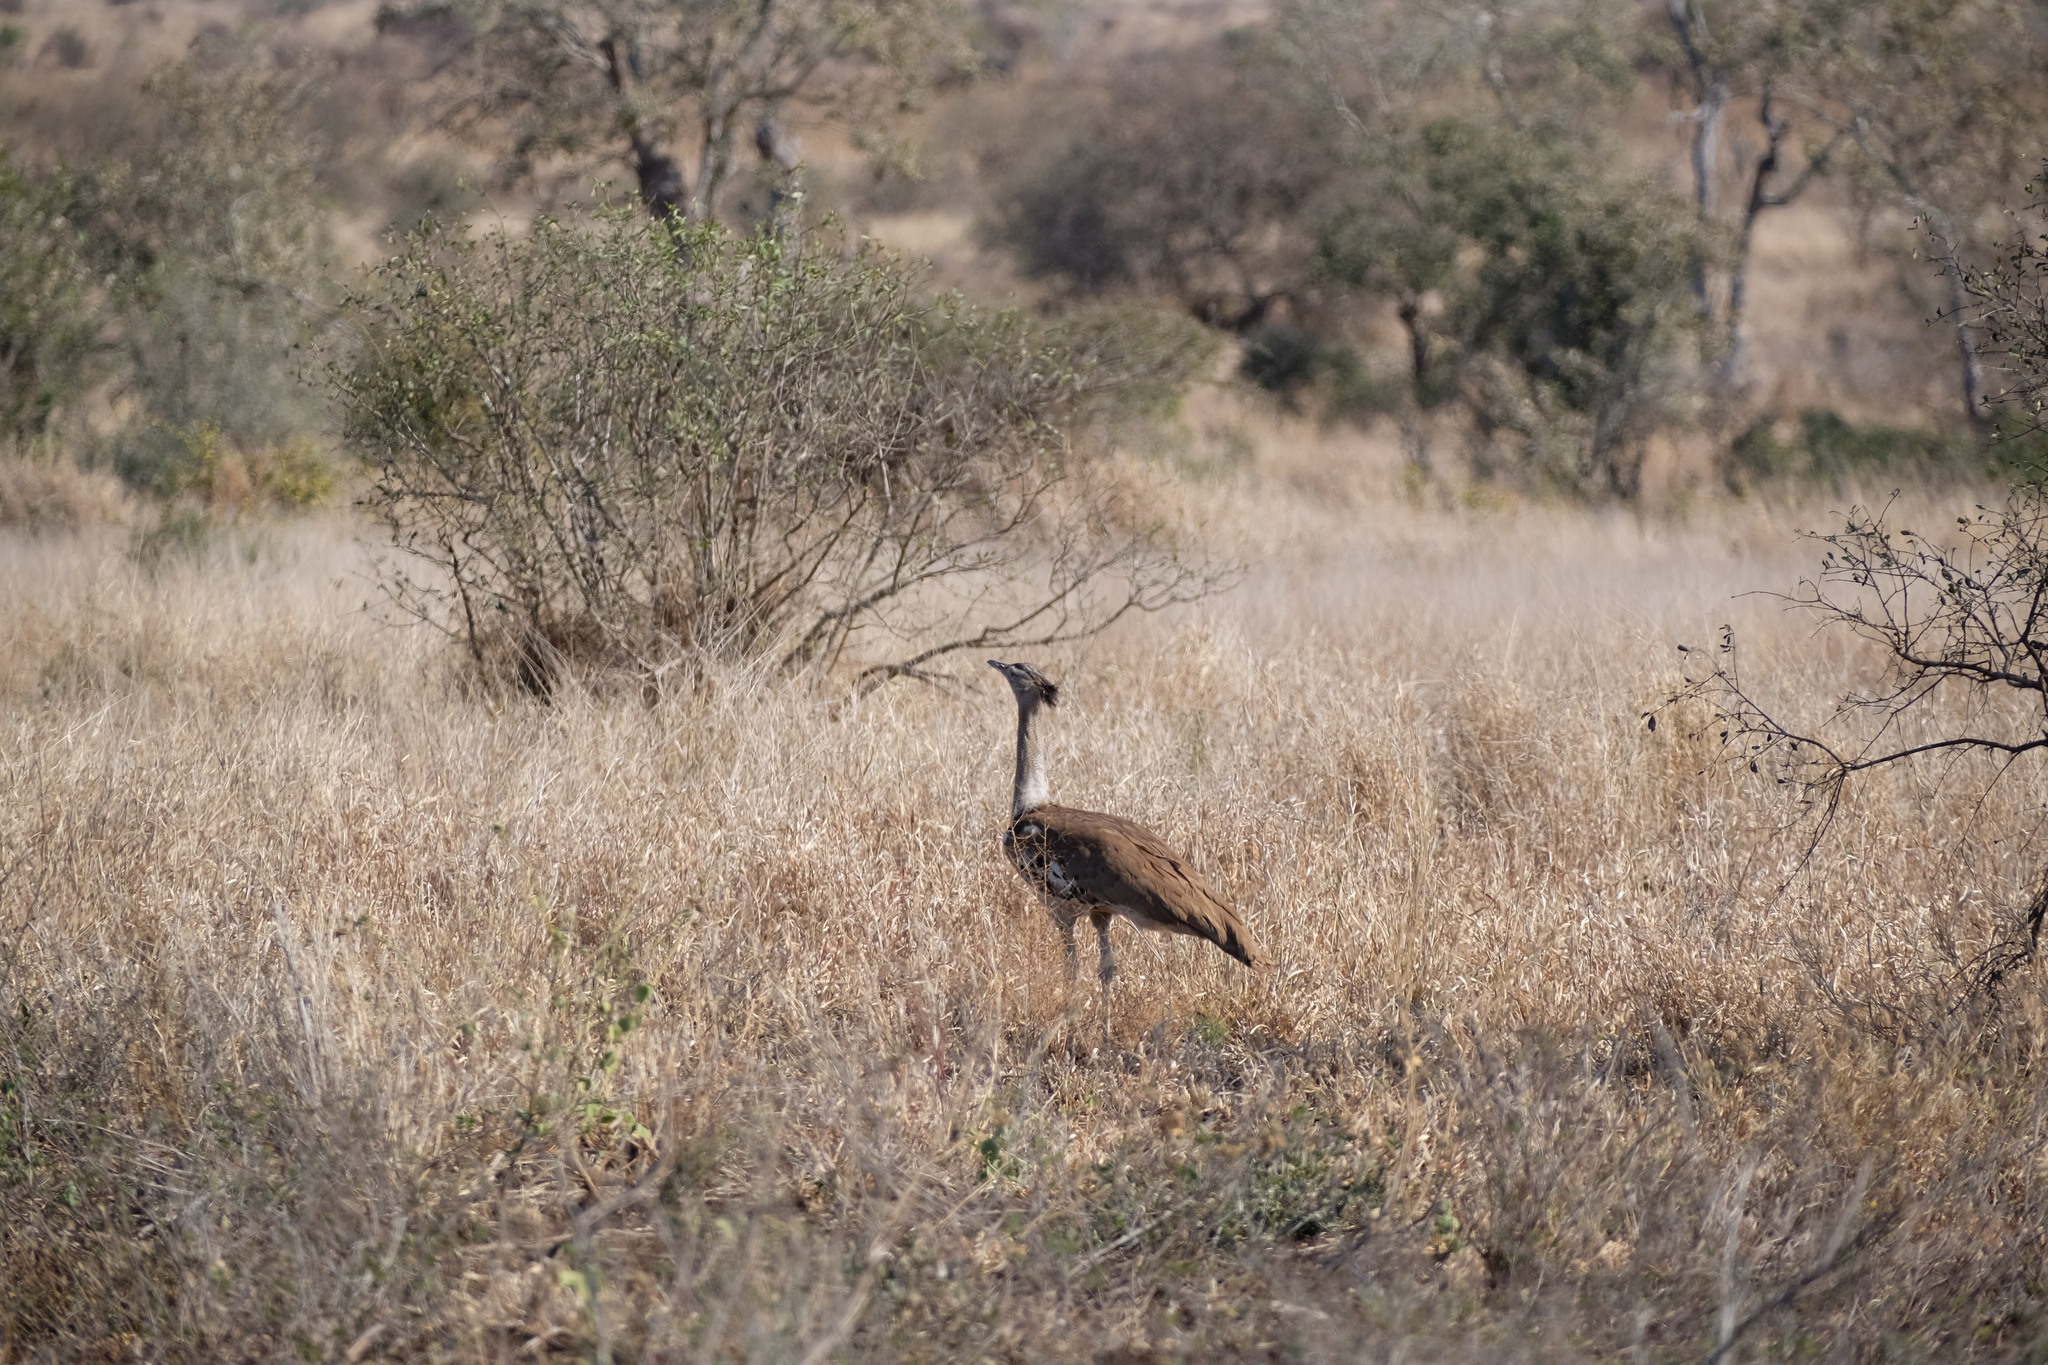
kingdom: Animalia
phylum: Chordata
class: Aves
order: Otidiformes
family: Otididae
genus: Ardeotis
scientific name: Ardeotis kori
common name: Kori bustard
